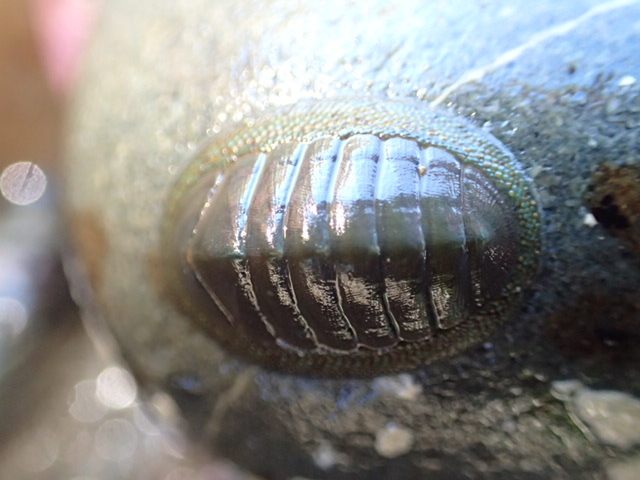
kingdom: Animalia
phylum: Mollusca
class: Polyplacophora
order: Chitonida
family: Chitonidae
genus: Chiton
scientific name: Chiton glaucus
